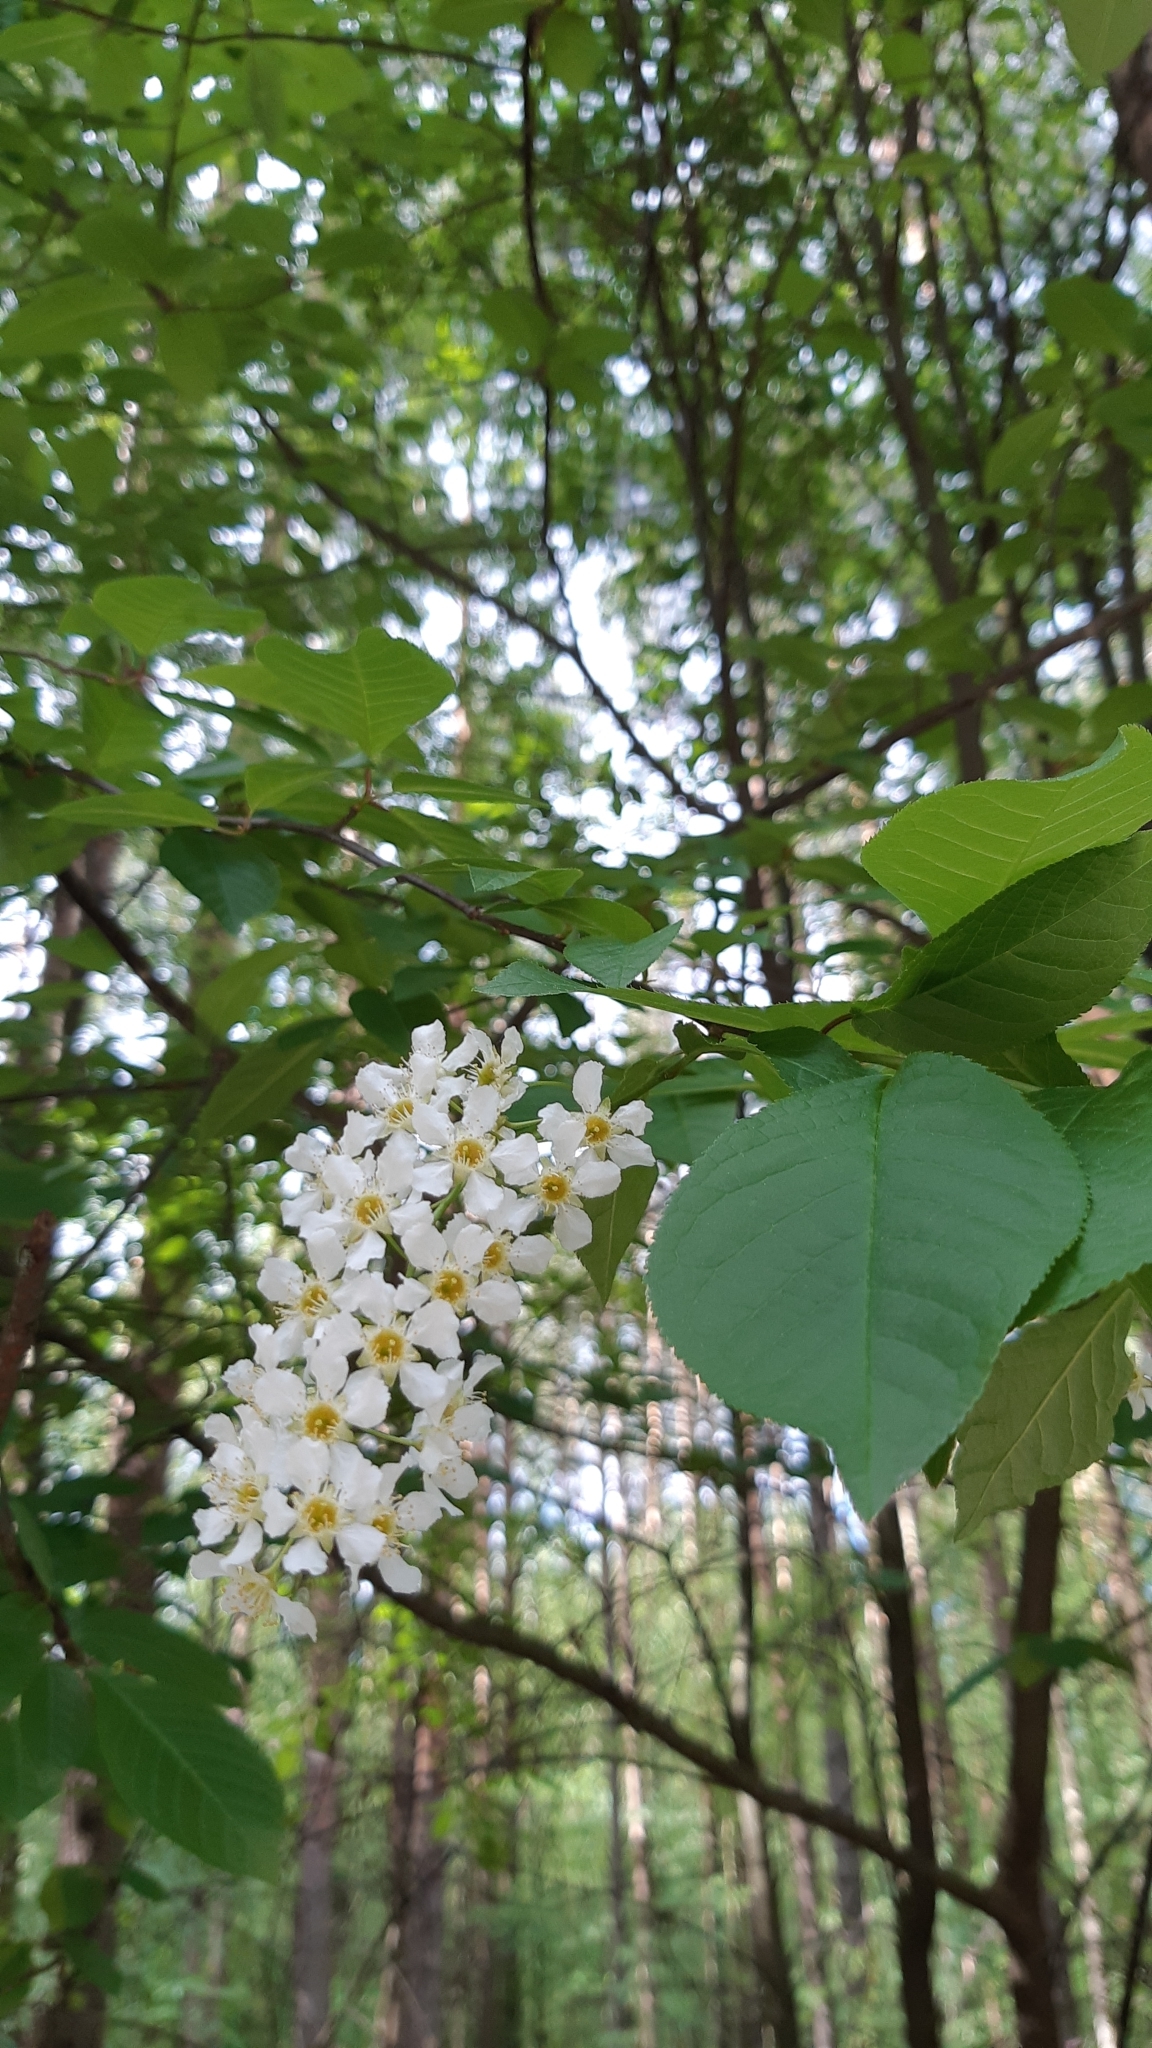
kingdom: Plantae
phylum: Tracheophyta
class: Magnoliopsida
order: Rosales
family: Rosaceae
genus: Prunus
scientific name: Prunus padus
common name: Bird cherry
